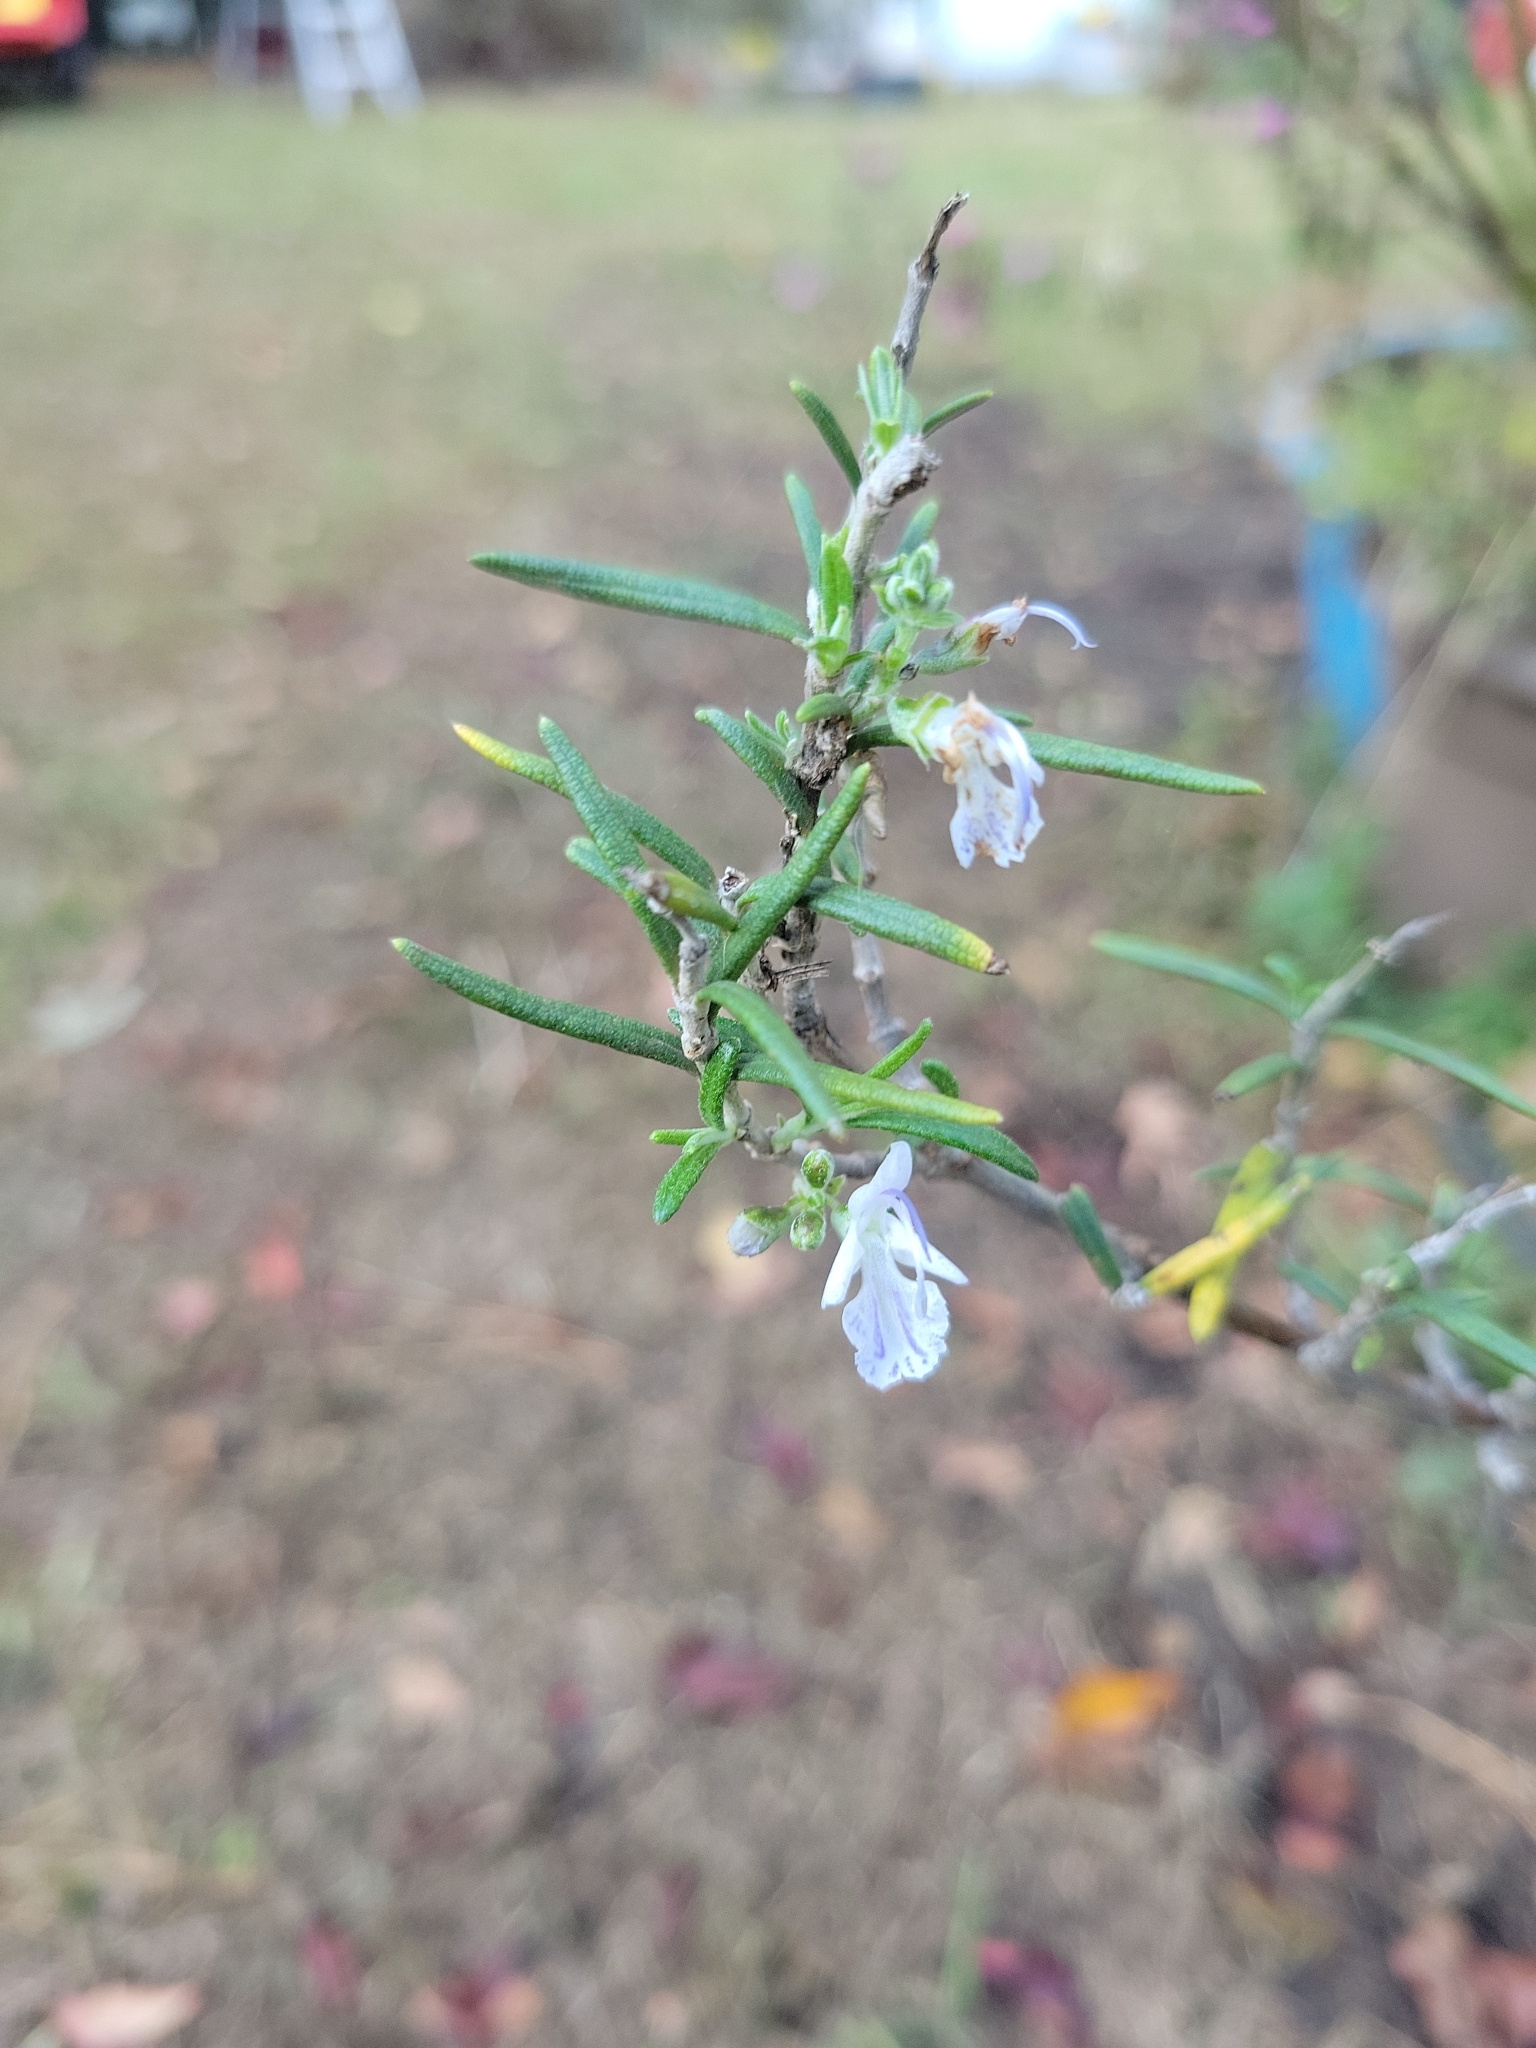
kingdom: Plantae
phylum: Tracheophyta
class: Magnoliopsida
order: Lamiales
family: Lamiaceae
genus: Salvia
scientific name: Salvia rosmarinus
